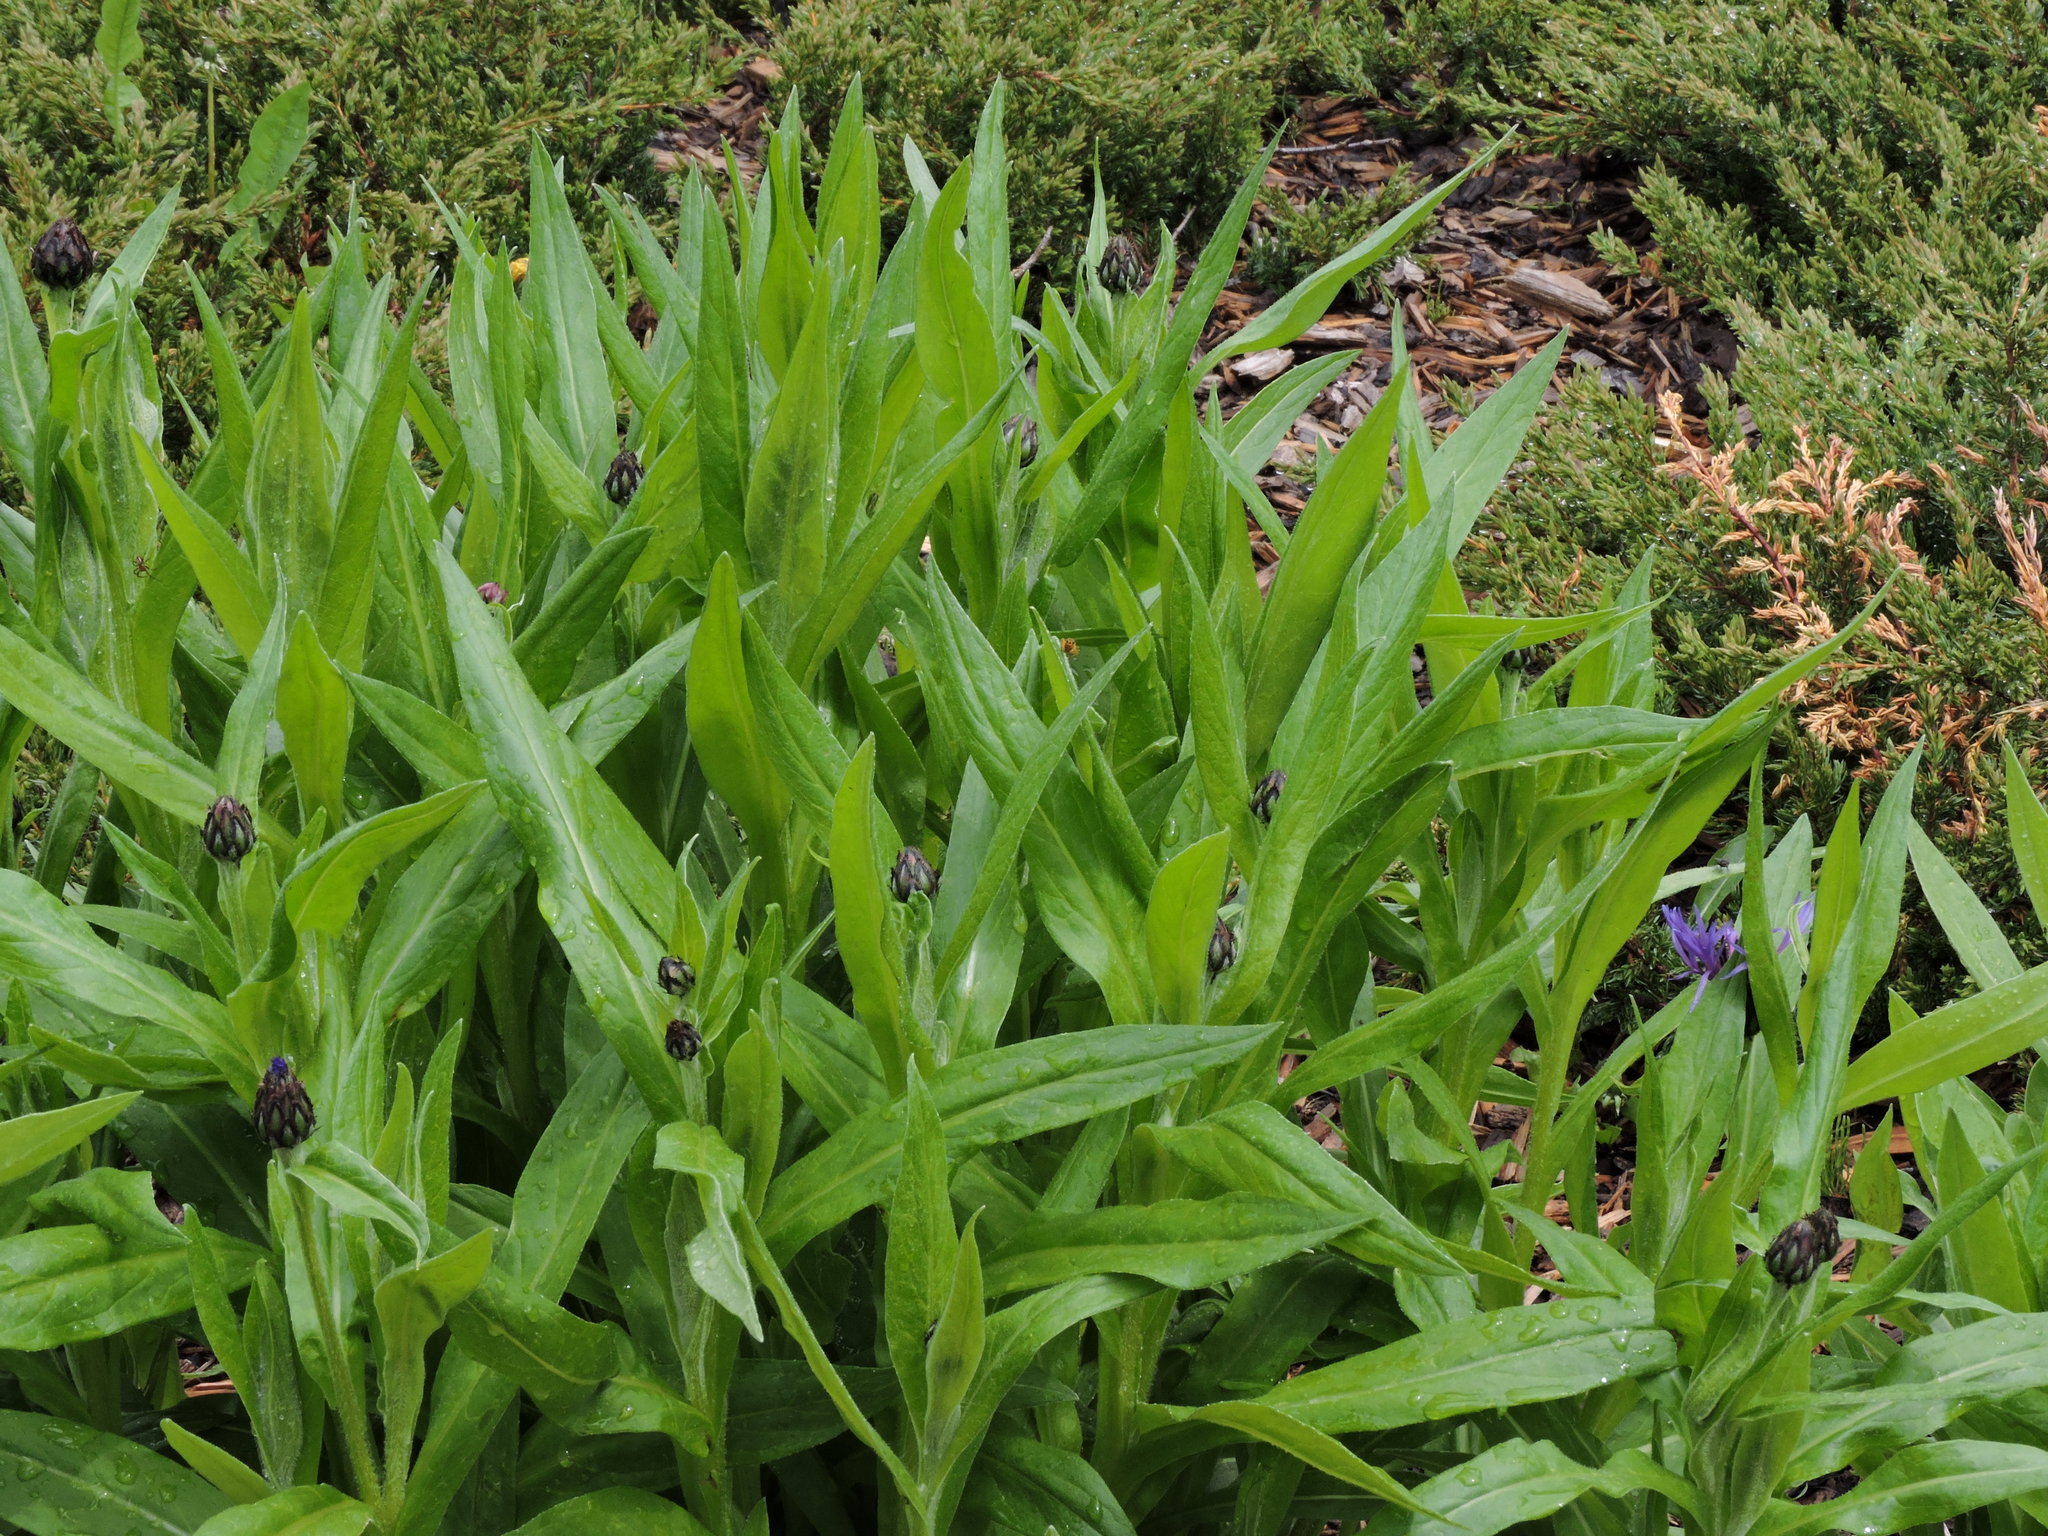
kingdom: Plantae
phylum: Tracheophyta
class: Magnoliopsida
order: Asterales
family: Asteraceae
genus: Centaurea
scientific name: Centaurea montana
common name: Perennial cornflower
